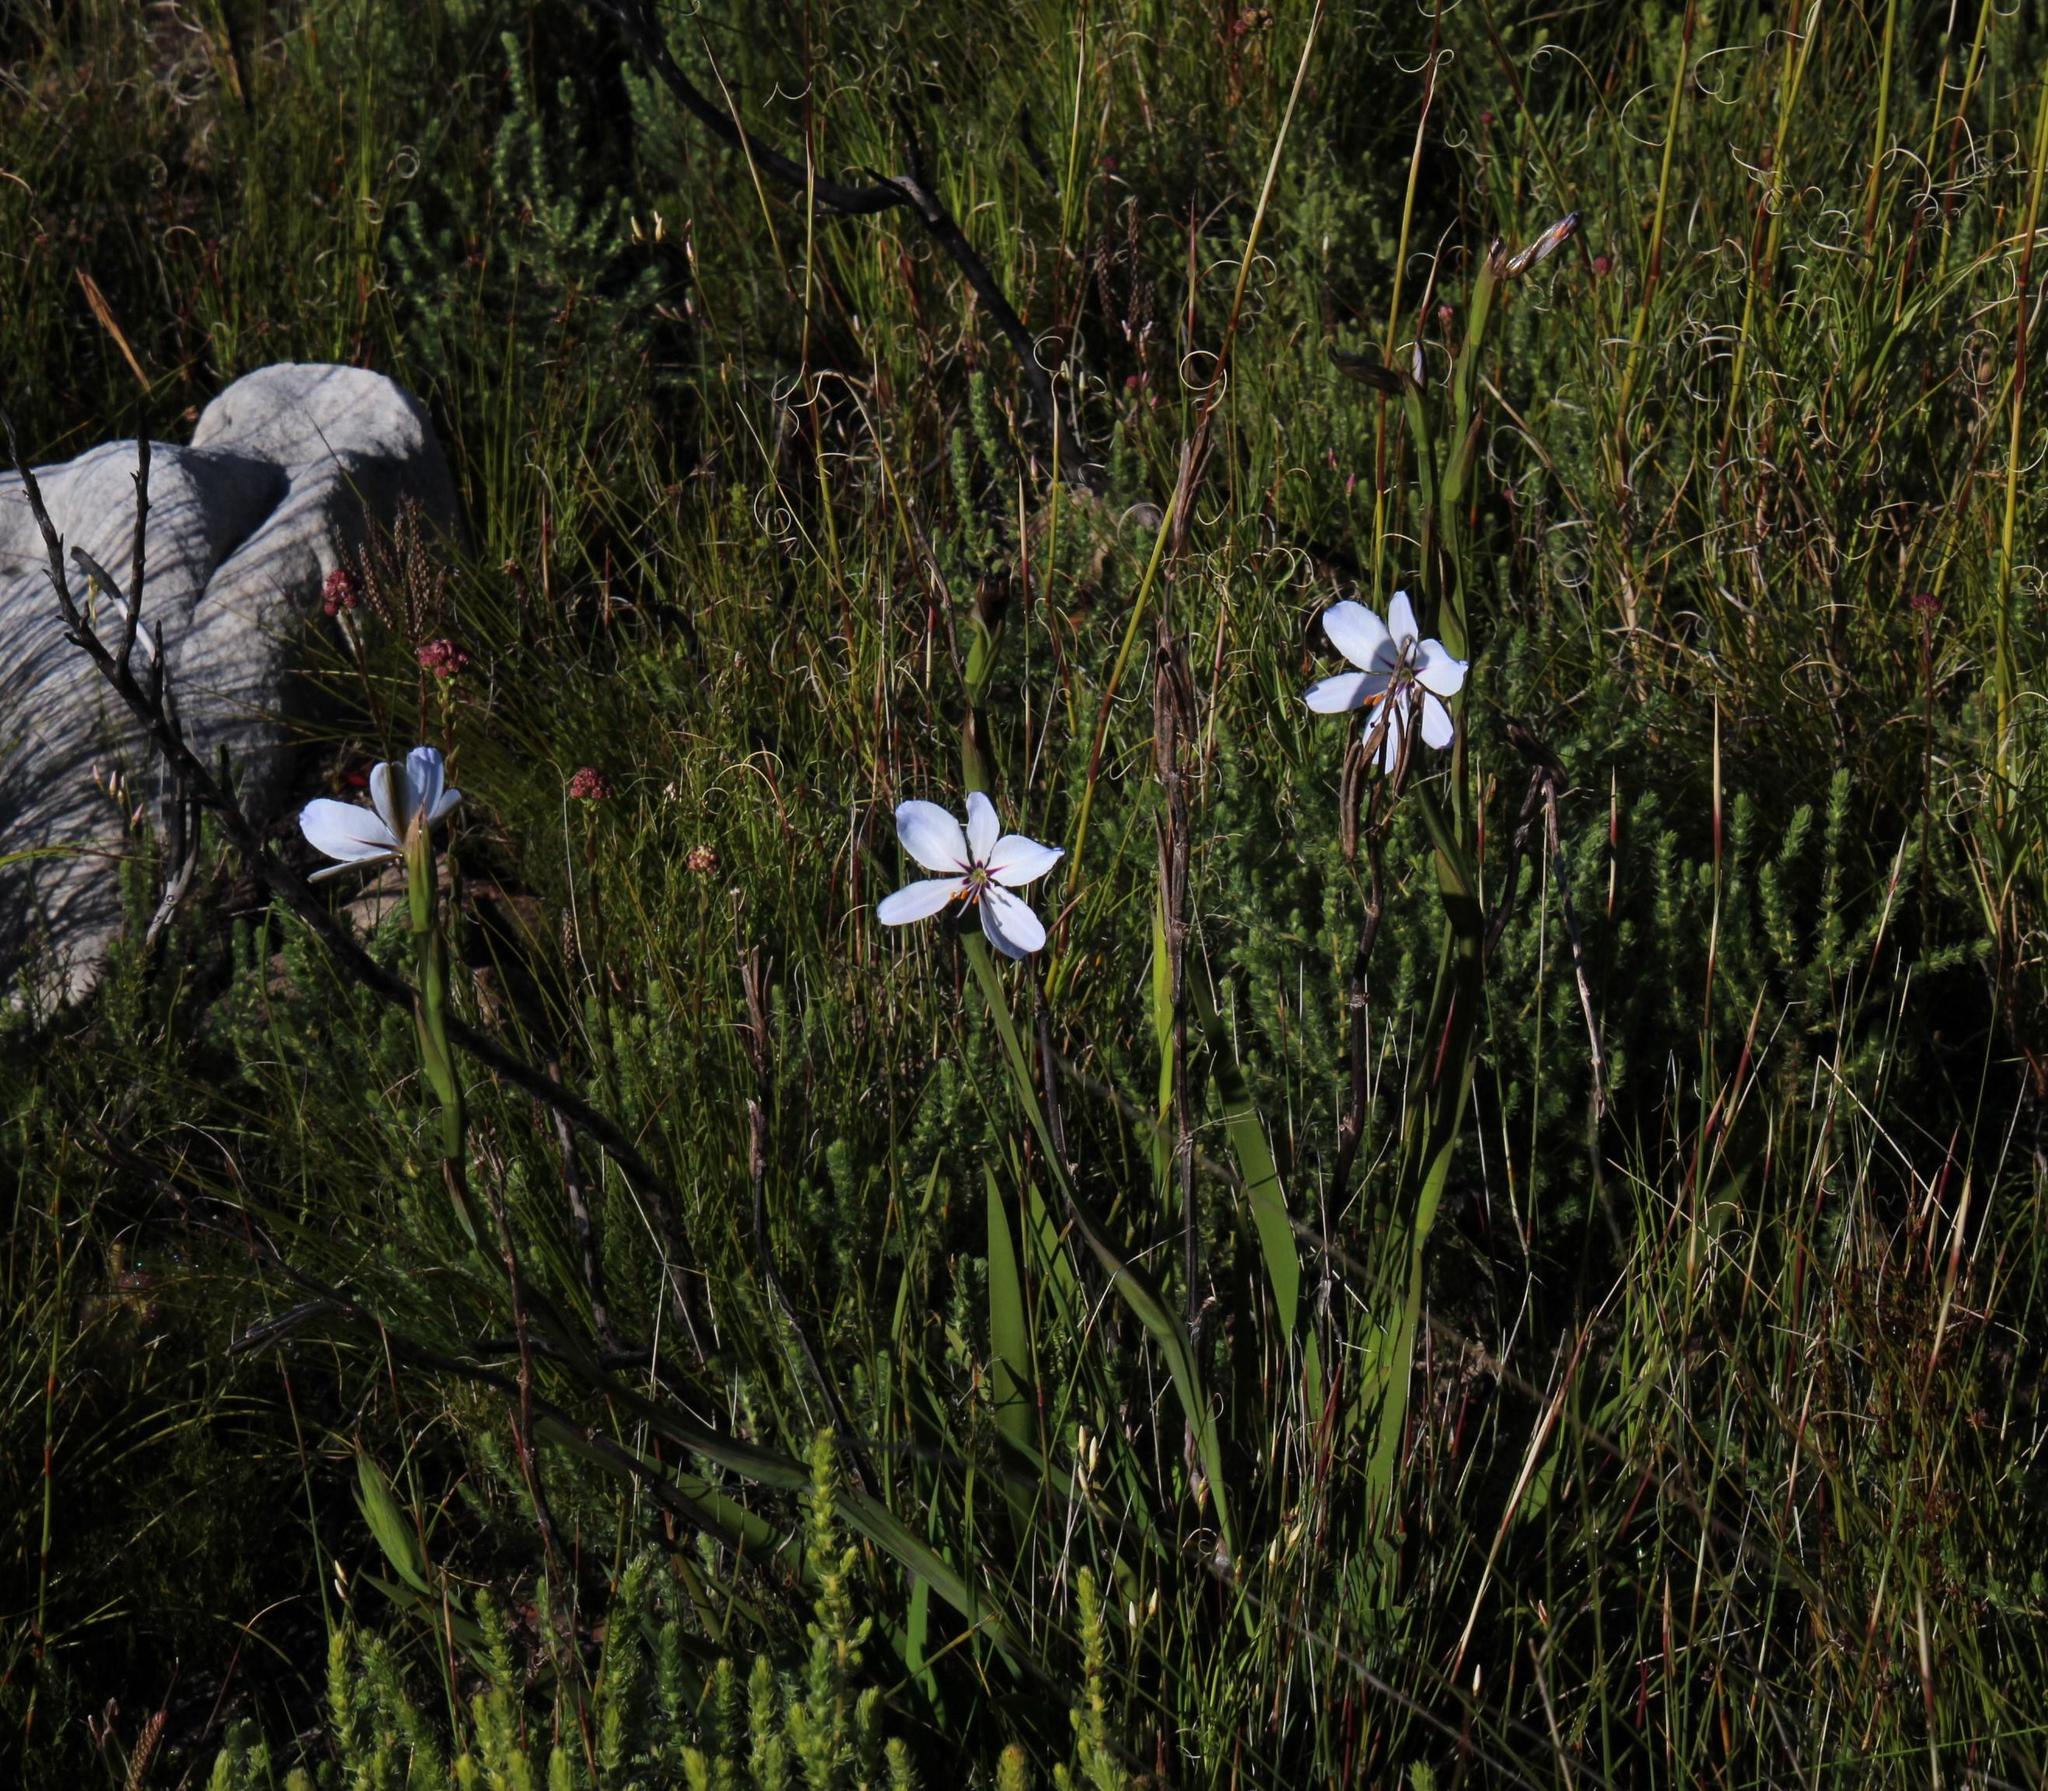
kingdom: Plantae
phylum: Tracheophyta
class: Liliopsida
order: Asparagales
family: Iridaceae
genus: Aristea
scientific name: Aristea spiralis
